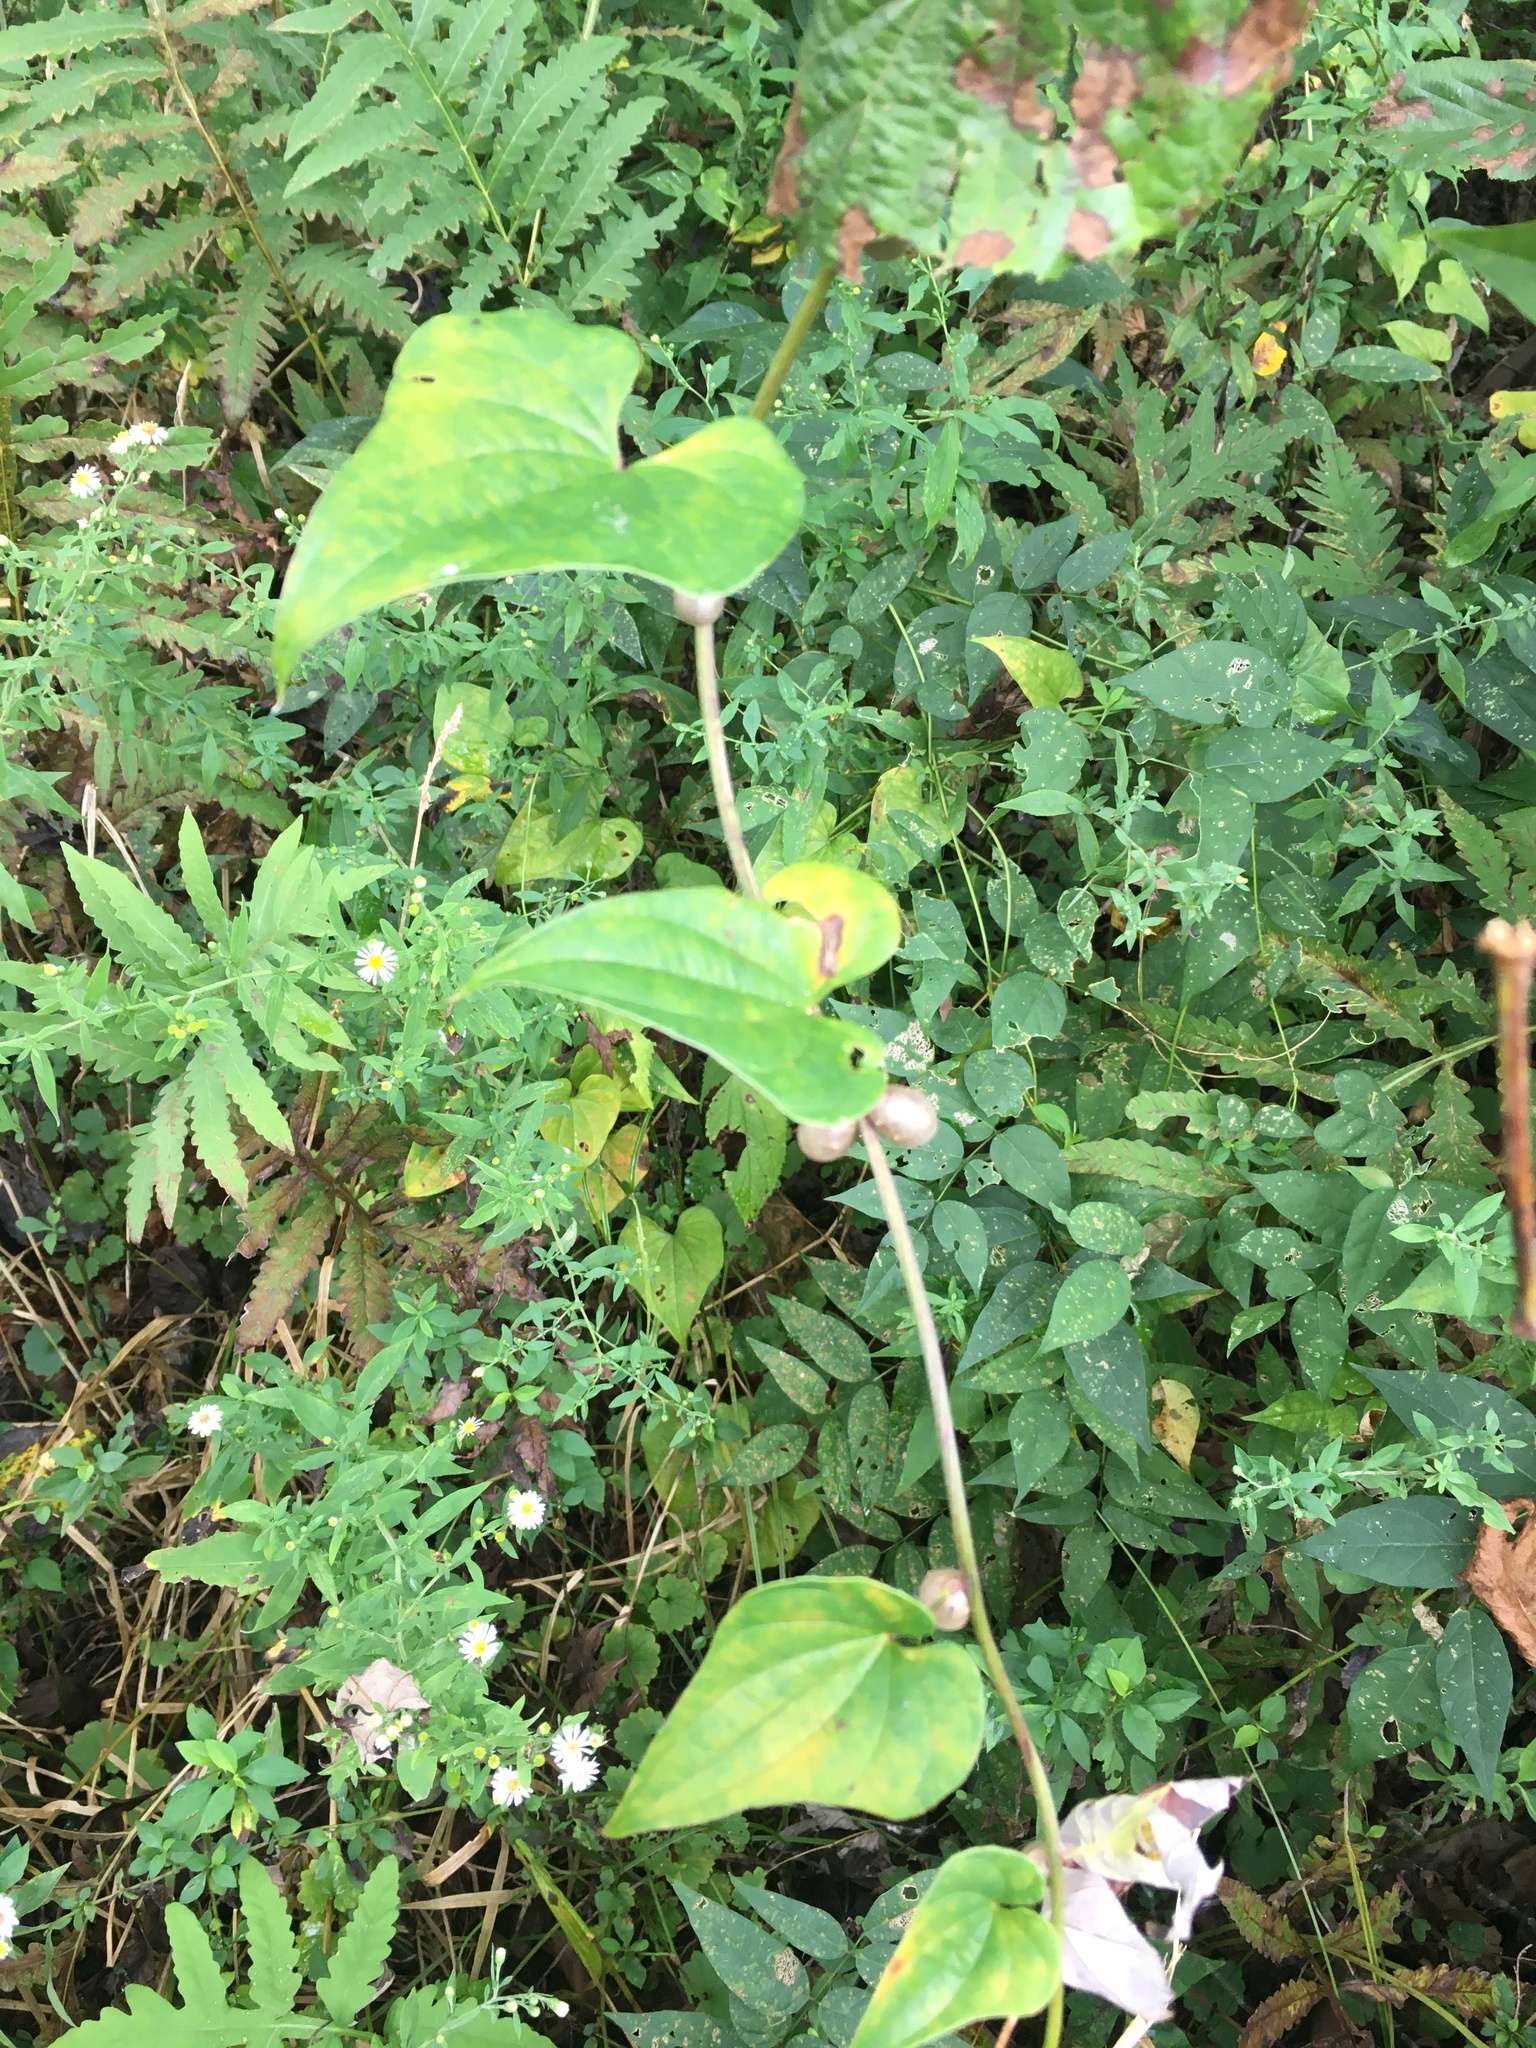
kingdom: Plantae
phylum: Tracheophyta
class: Liliopsida
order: Dioscoreales
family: Dioscoreaceae
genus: Dioscorea
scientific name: Dioscorea polystachya
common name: Chinese yam
